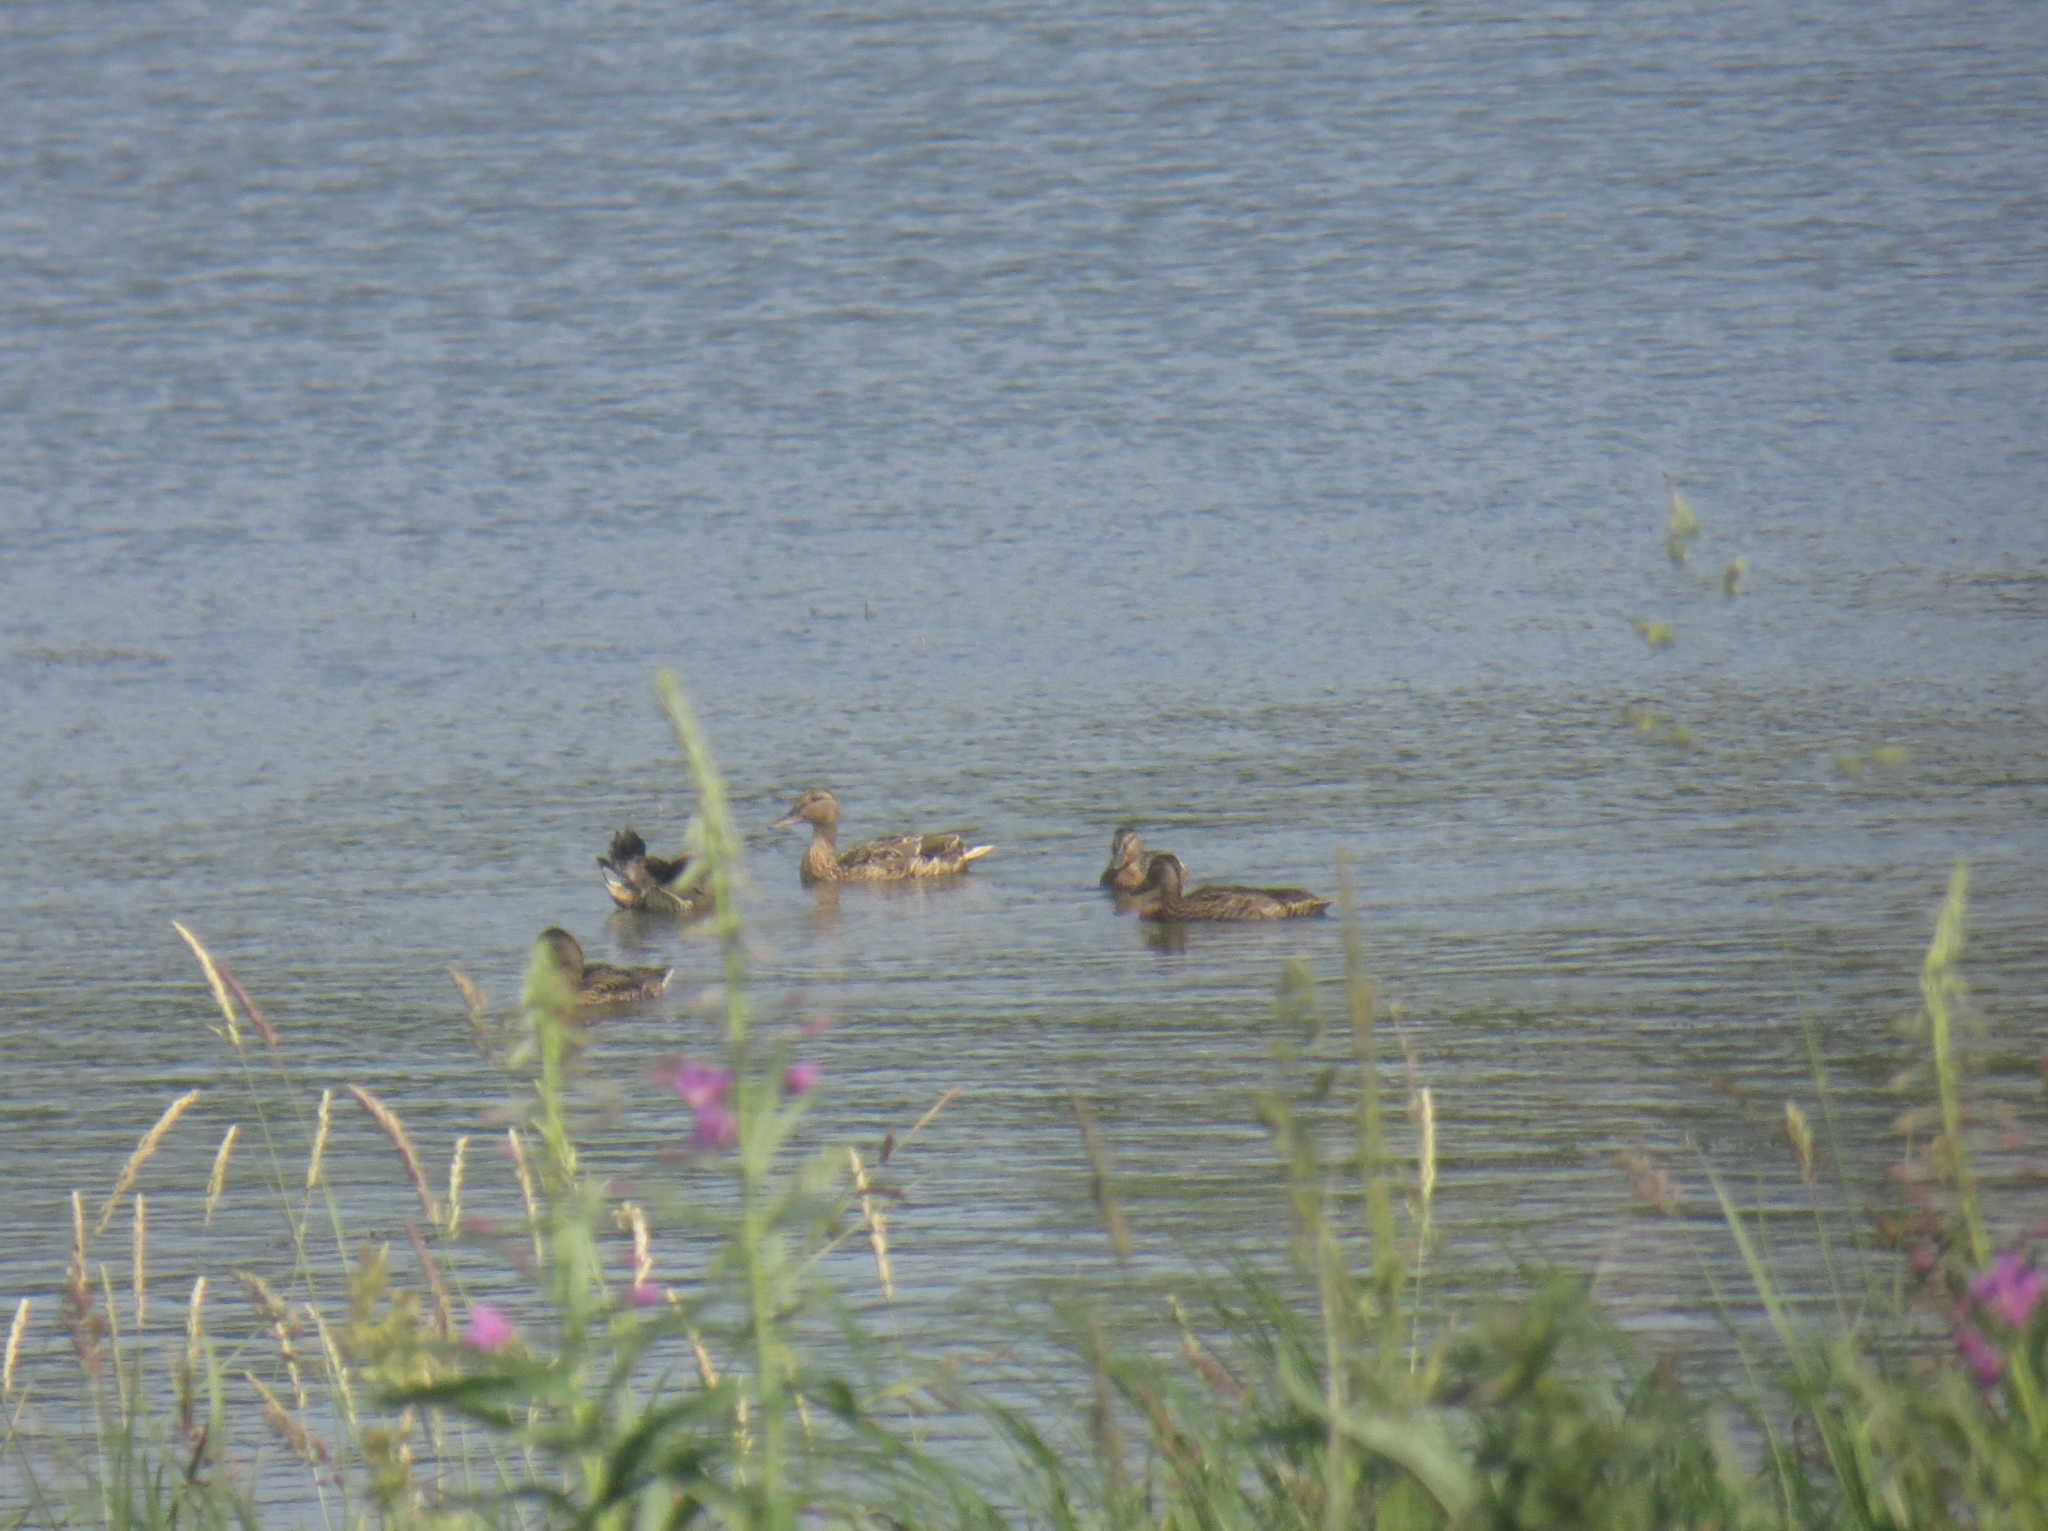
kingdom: Animalia
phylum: Chordata
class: Aves
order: Anseriformes
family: Anatidae
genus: Anas
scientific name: Anas platyrhynchos
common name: Mallard
